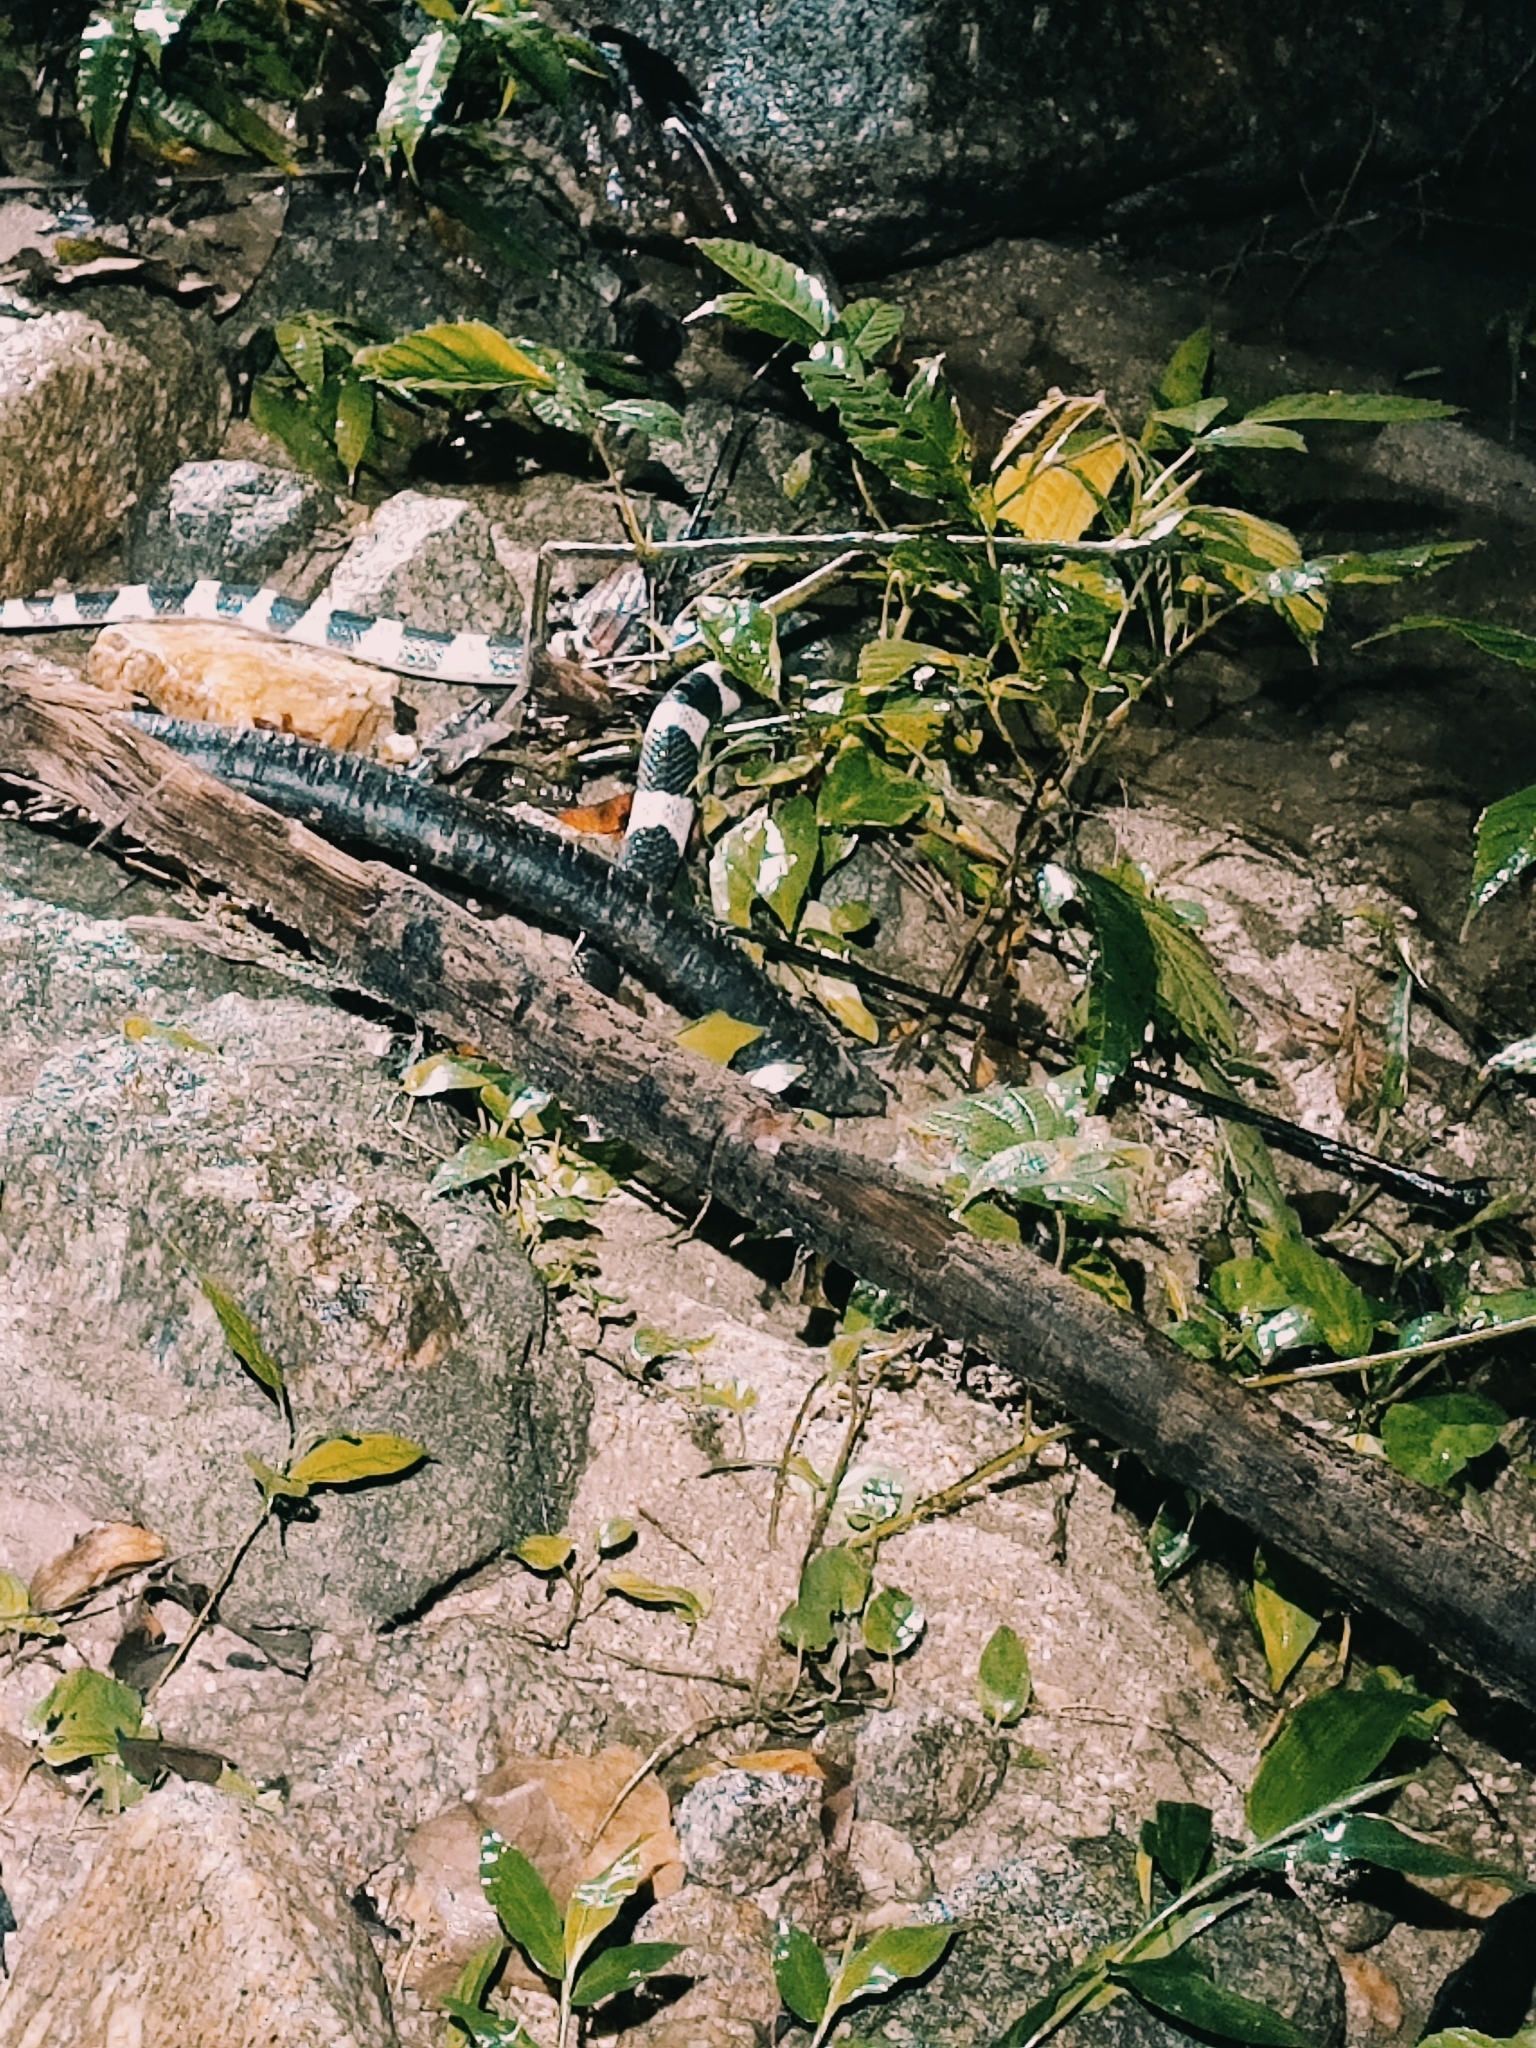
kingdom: Animalia
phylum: Chordata
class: Squamata
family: Elapidae
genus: Bungarus
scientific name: Bungarus candidus
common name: Blue krait/malayan krait
